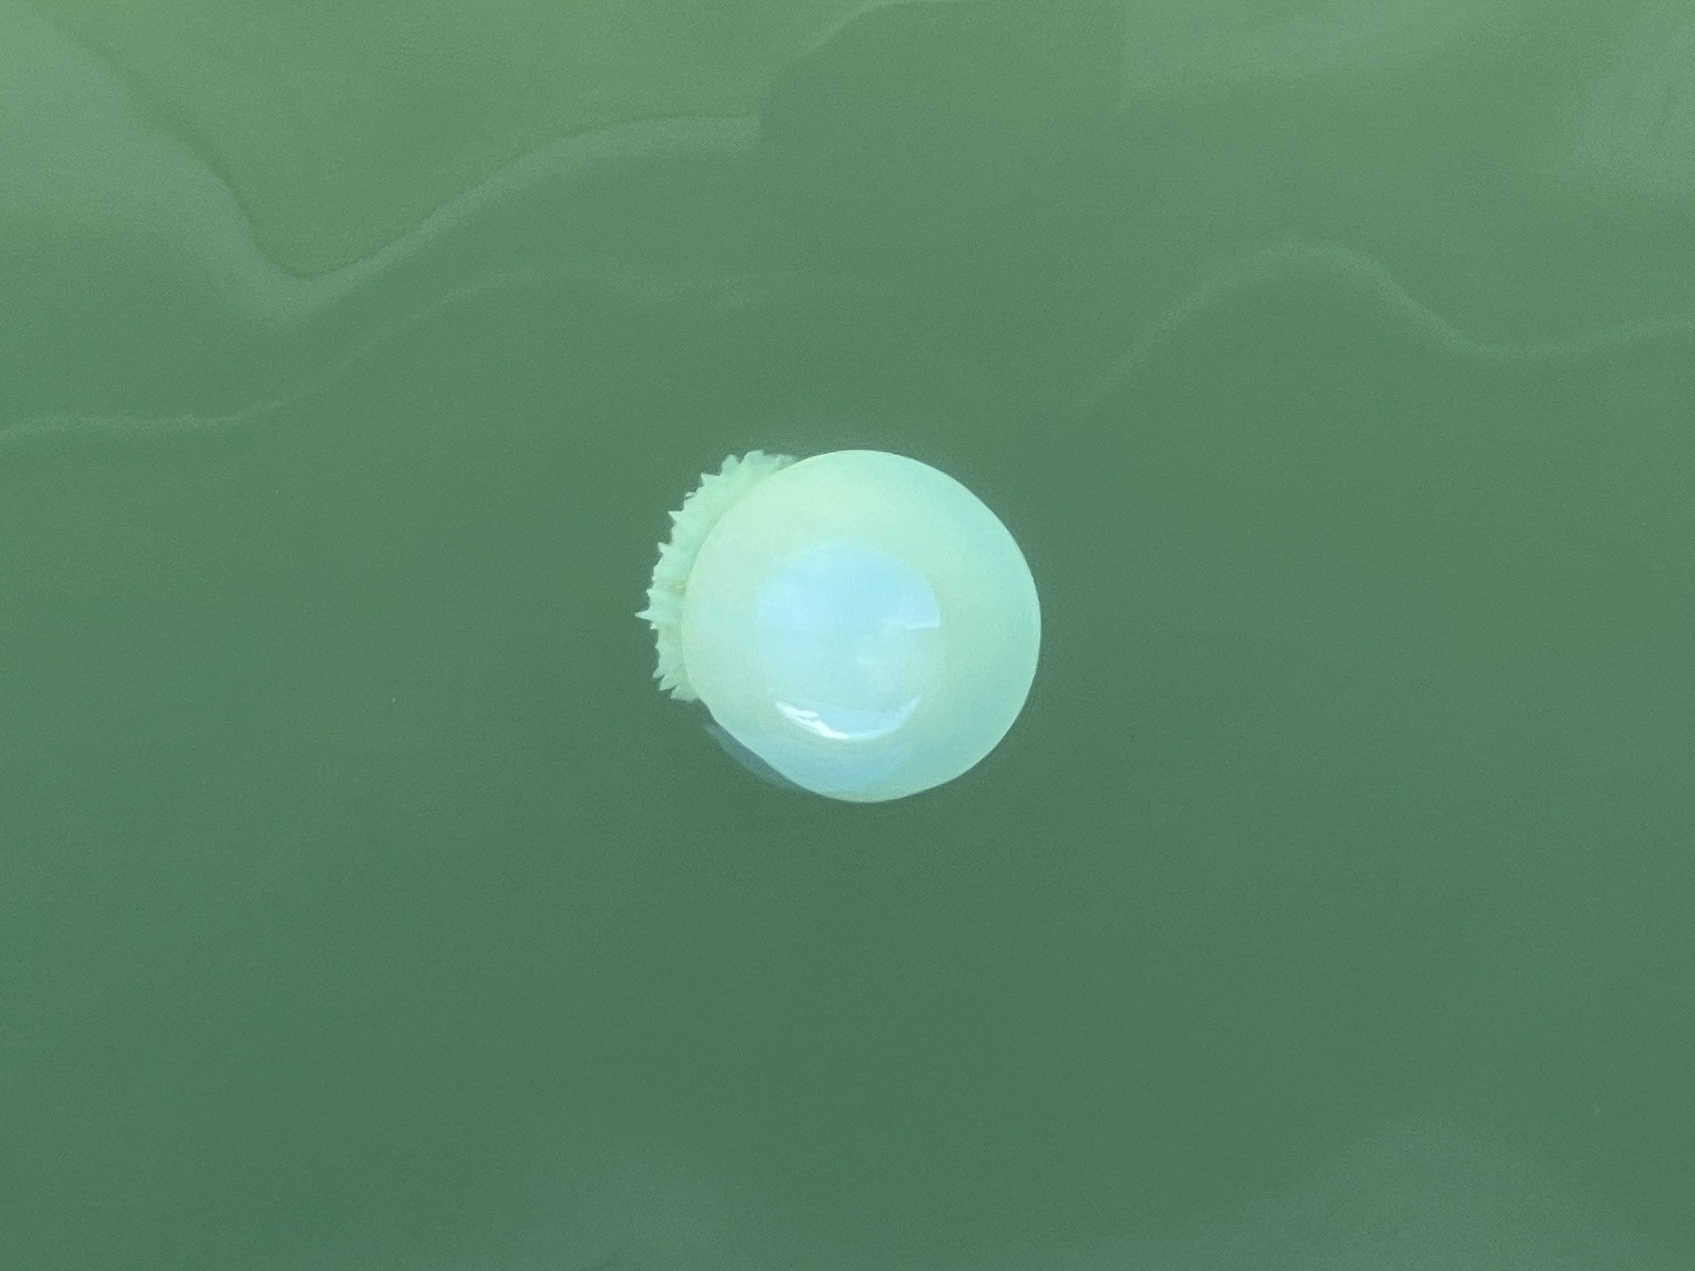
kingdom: Animalia
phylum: Cnidaria
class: Scyphozoa
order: Rhizostomeae
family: Stomolophidae
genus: Stomolophus
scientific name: Stomolophus meleagris
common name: Cabbagehead
